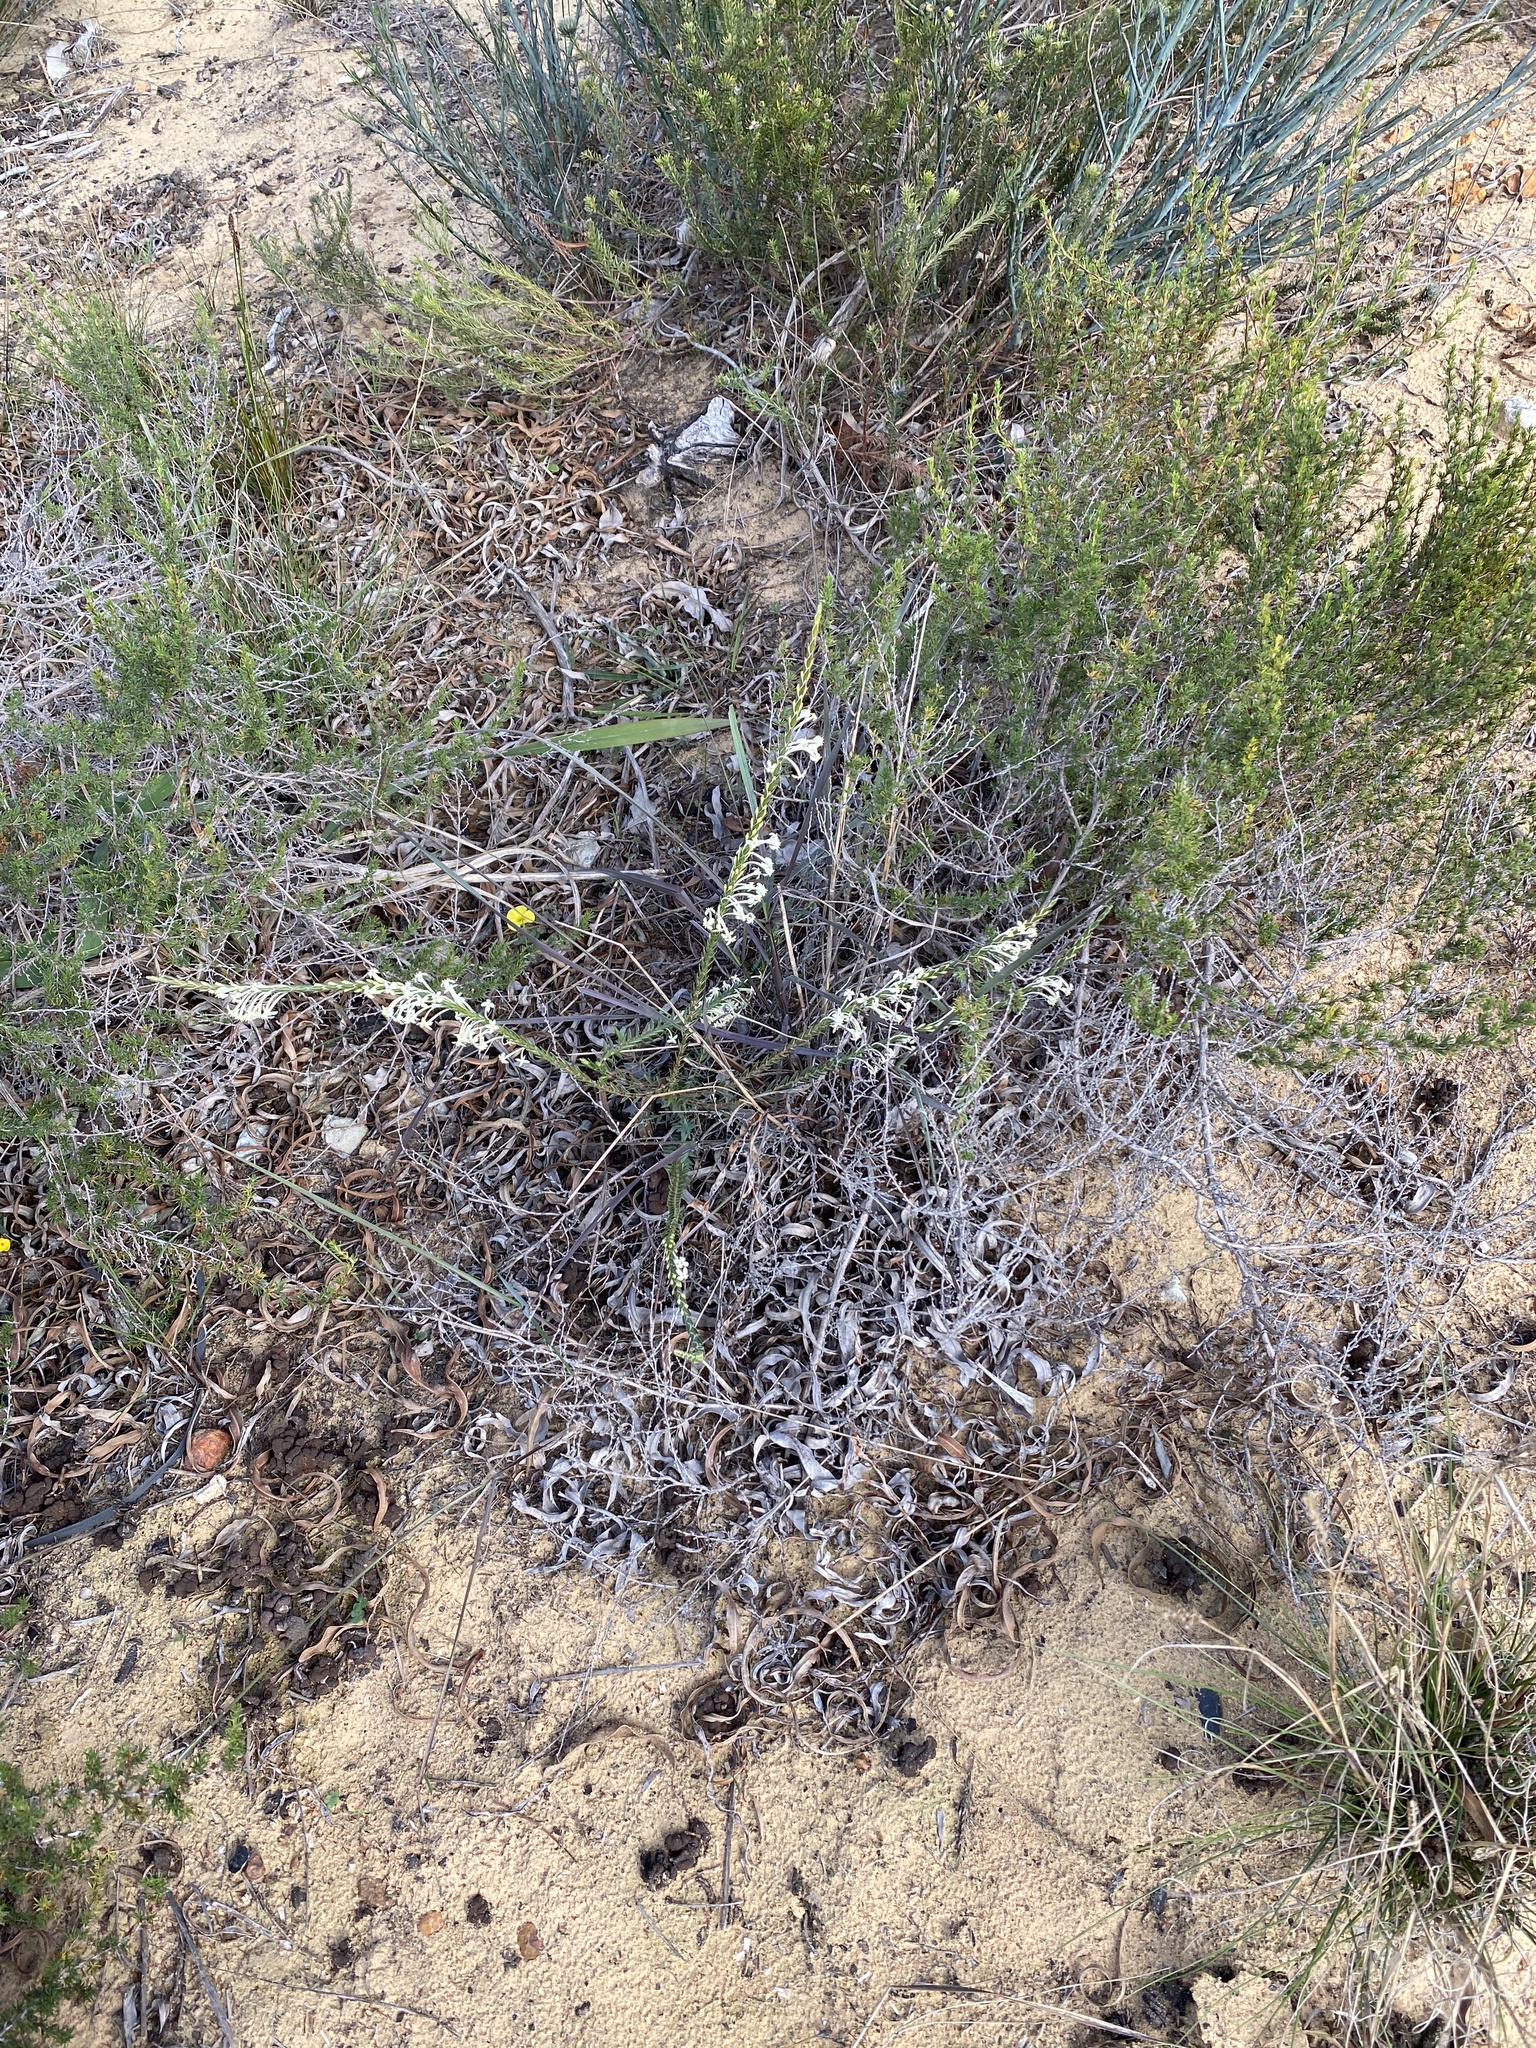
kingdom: Plantae
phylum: Tracheophyta
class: Magnoliopsida
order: Malvales
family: Thymelaeaceae
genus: Struthiola
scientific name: Struthiola ciliata
